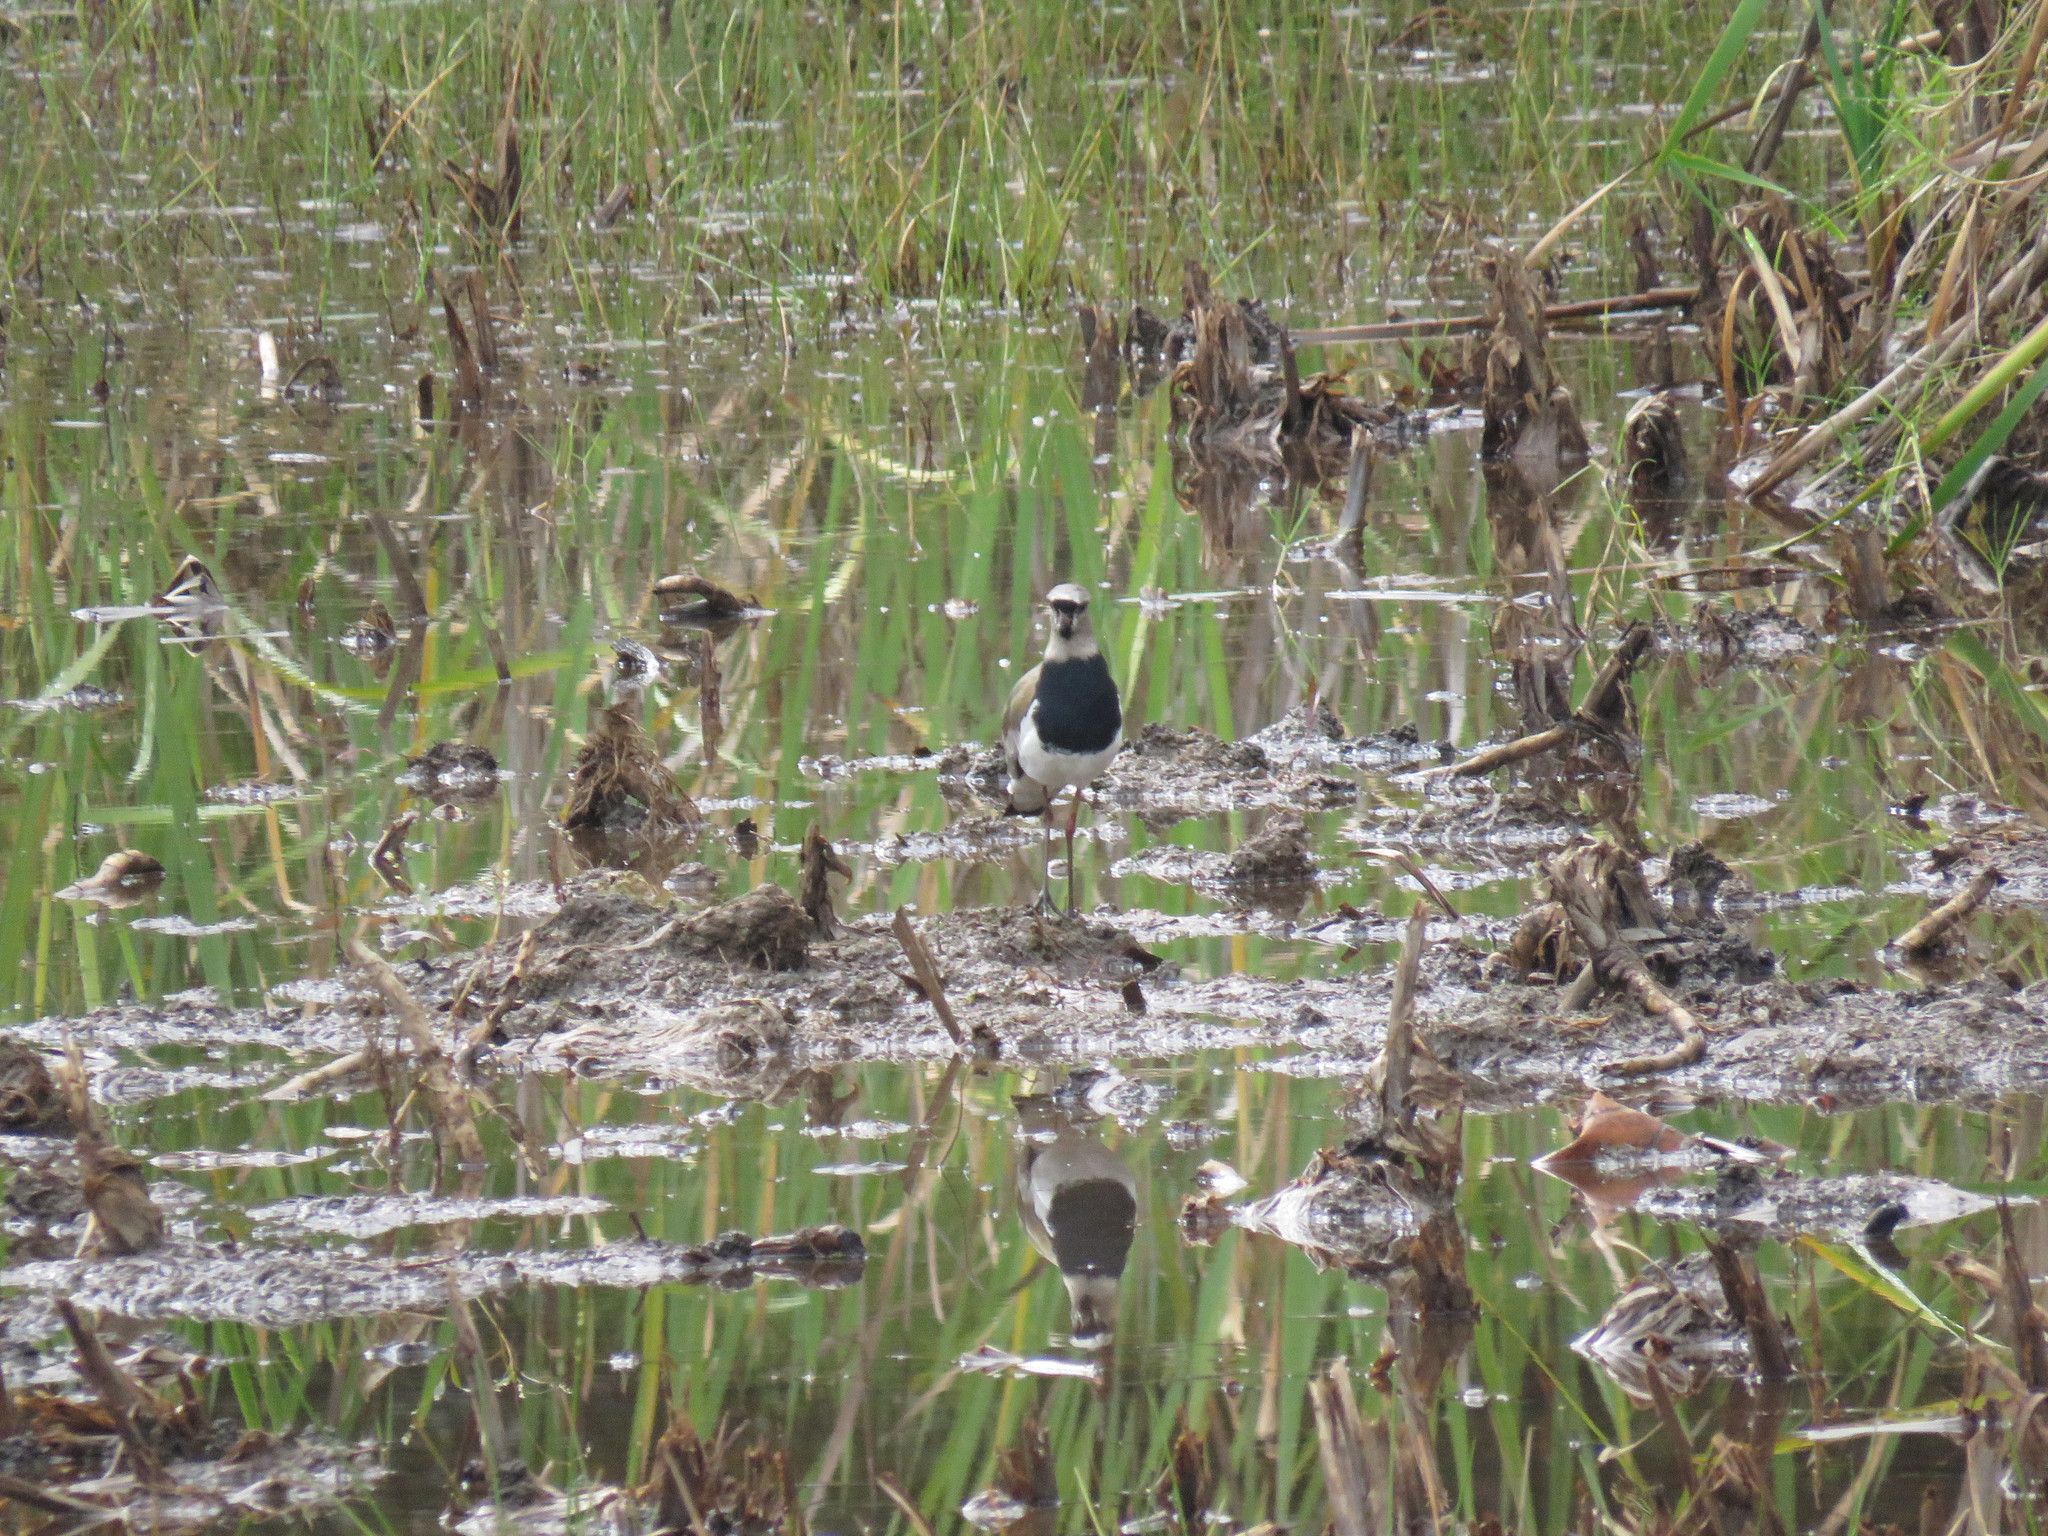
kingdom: Animalia
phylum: Chordata
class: Aves
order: Charadriiformes
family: Charadriidae
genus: Vanellus
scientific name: Vanellus chilensis
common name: Southern lapwing
